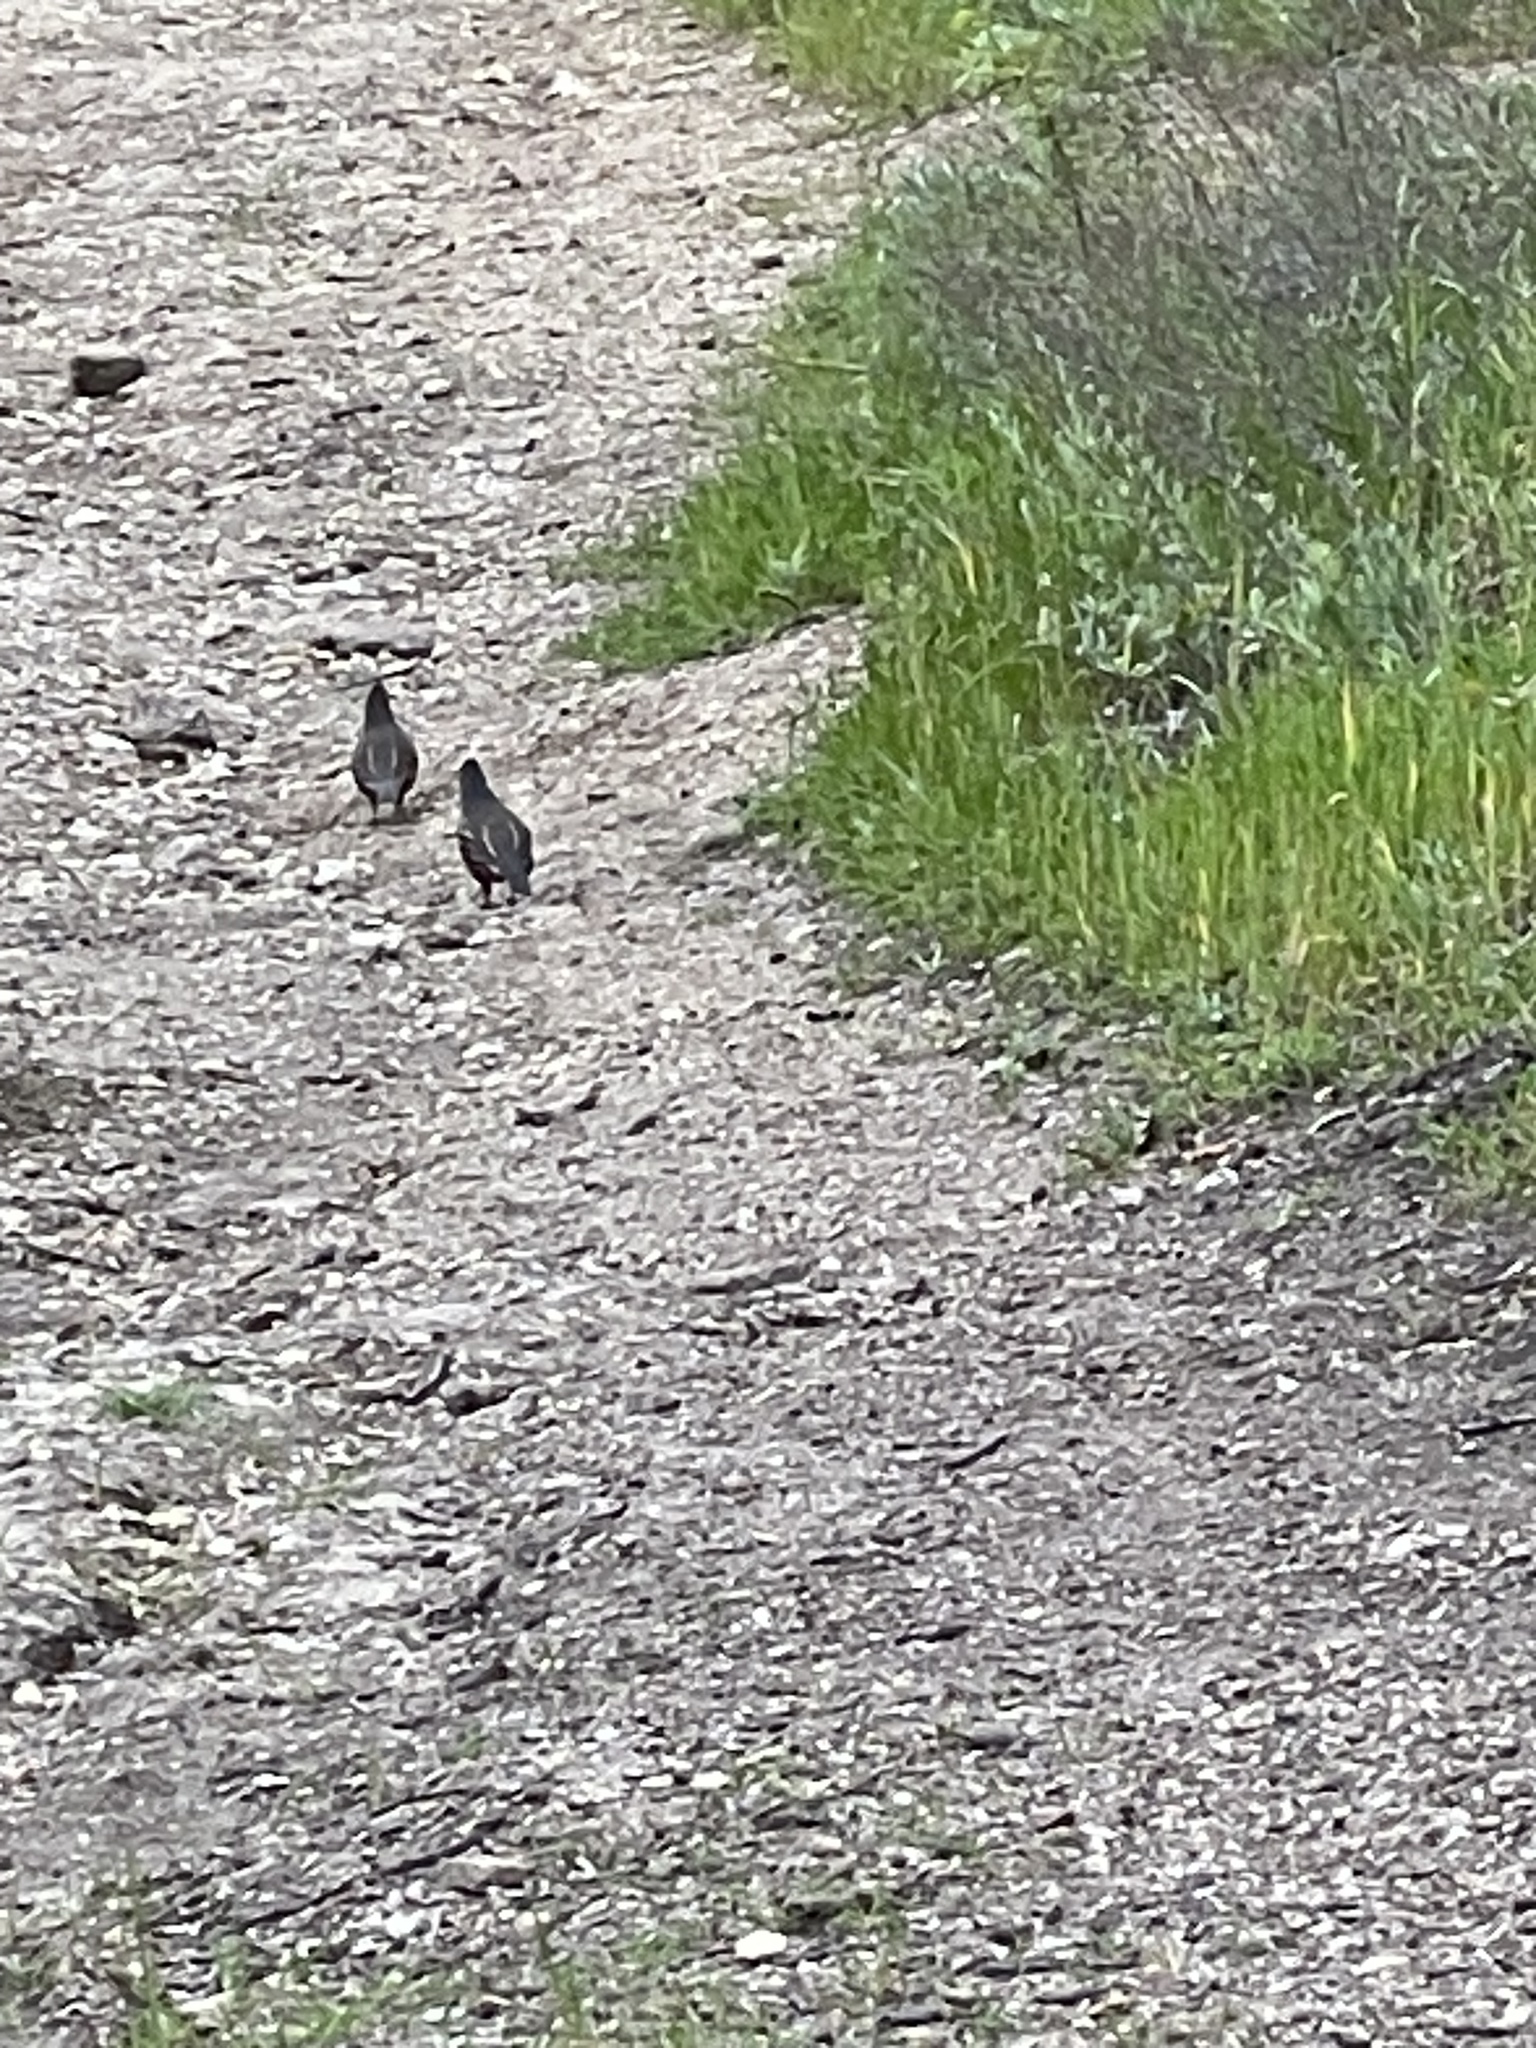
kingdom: Animalia
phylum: Chordata
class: Aves
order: Galliformes
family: Odontophoridae
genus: Callipepla
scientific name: Callipepla californica
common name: California quail
